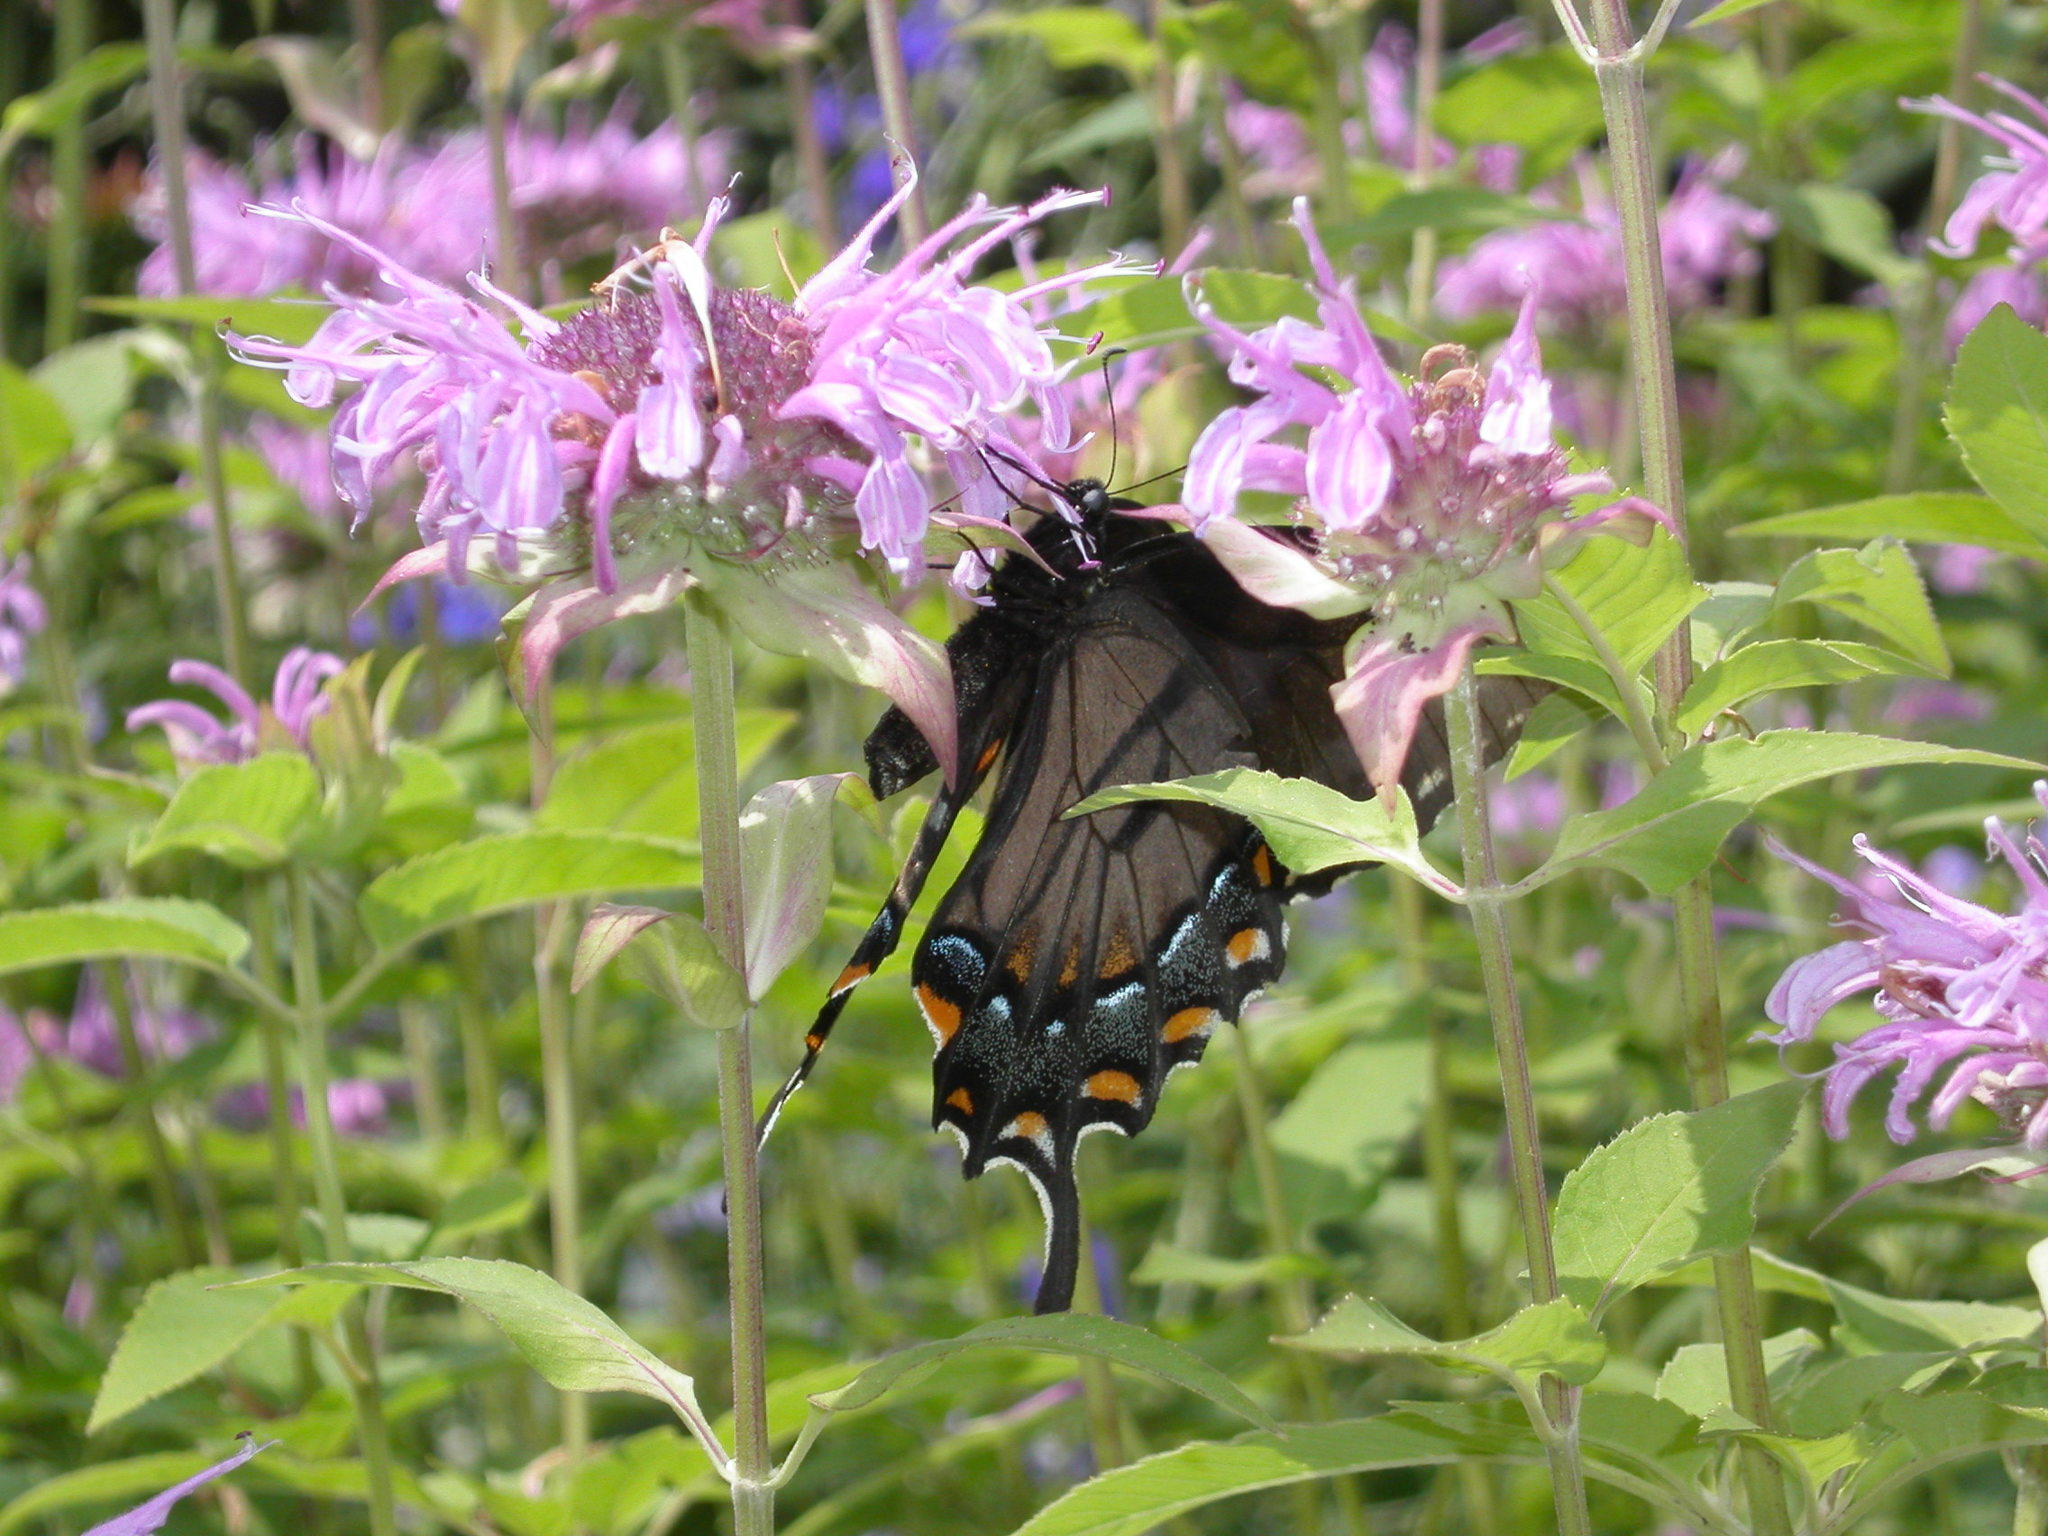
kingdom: Animalia
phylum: Arthropoda
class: Insecta
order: Lepidoptera
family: Papilionidae
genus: Papilio
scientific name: Papilio glaucus
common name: Tiger swallowtail
